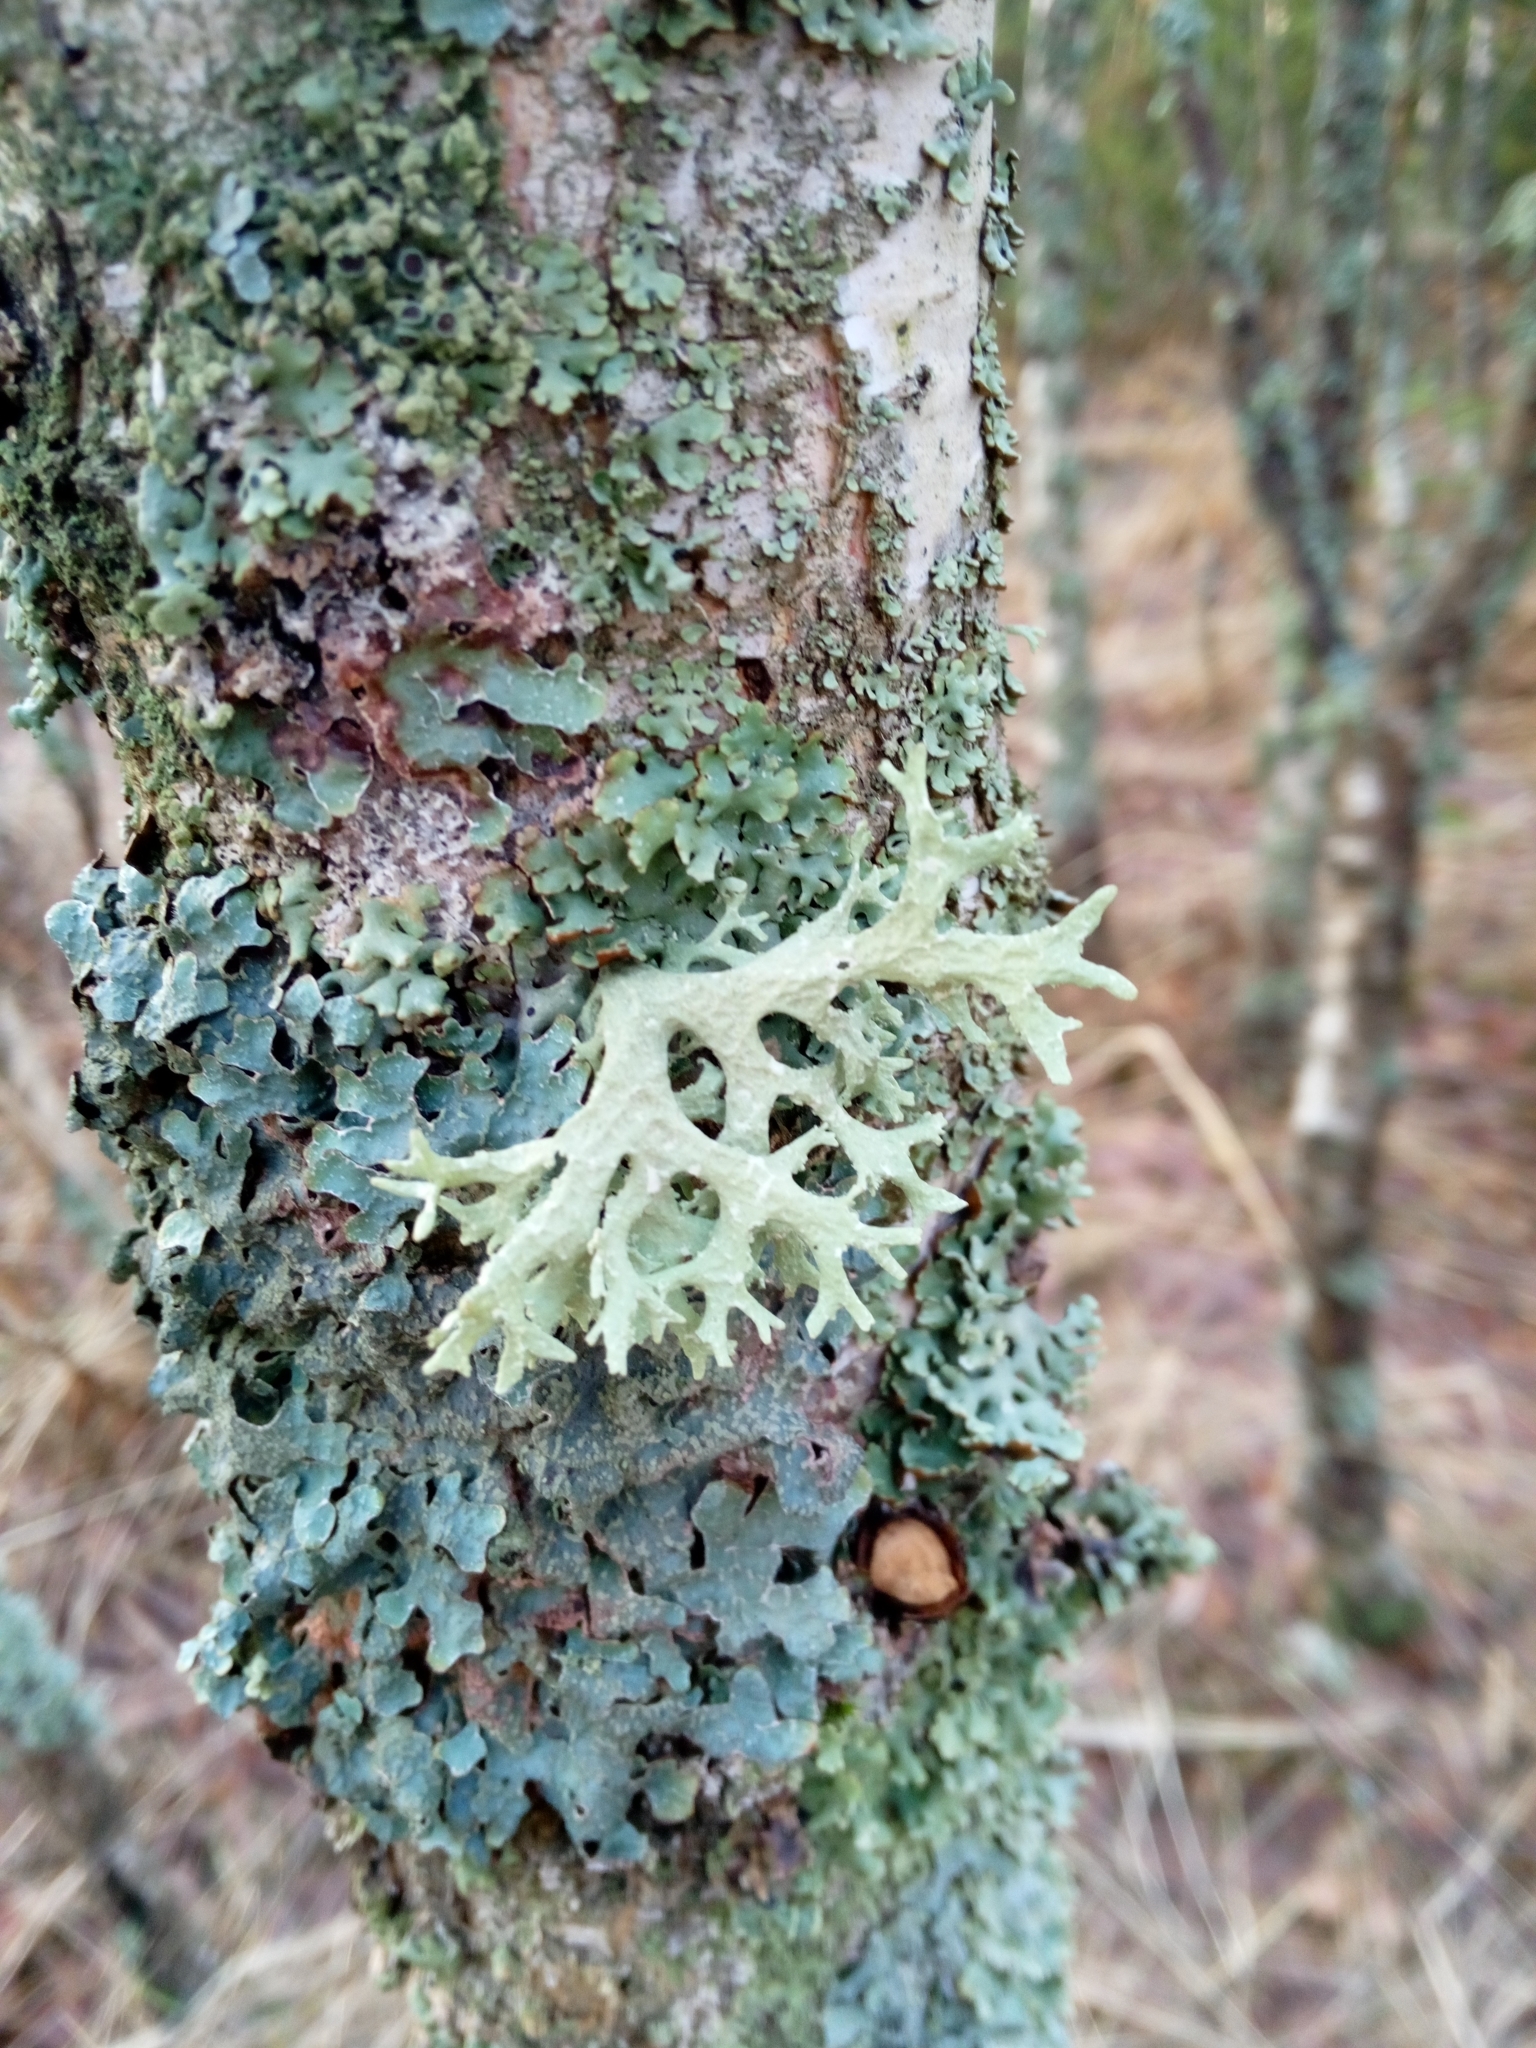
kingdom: Fungi
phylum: Ascomycota
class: Lecanoromycetes
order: Lecanorales
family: Parmeliaceae
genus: Evernia
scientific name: Evernia prunastri
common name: Oak moss
